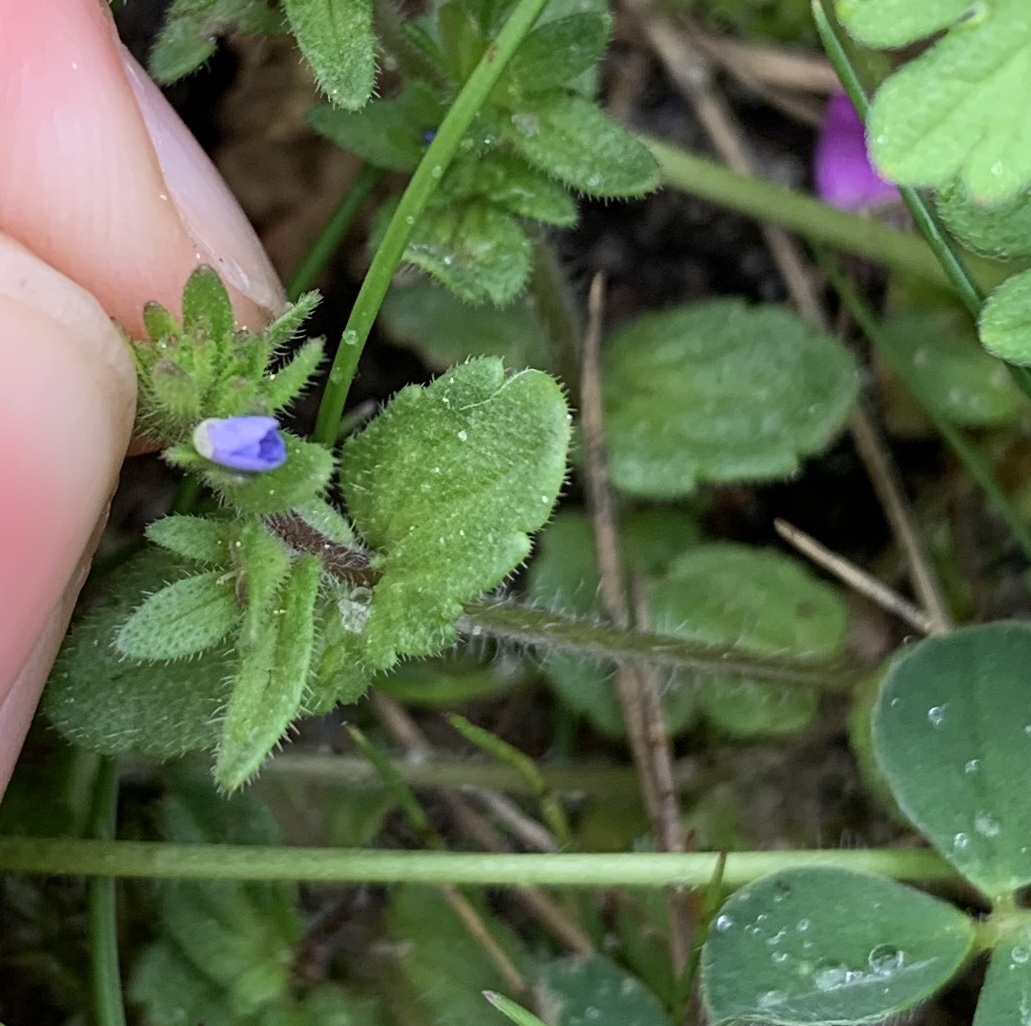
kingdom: Plantae
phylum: Tracheophyta
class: Magnoliopsida
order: Lamiales
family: Plantaginaceae
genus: Veronica
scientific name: Veronica arvensis
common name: Corn speedwell
